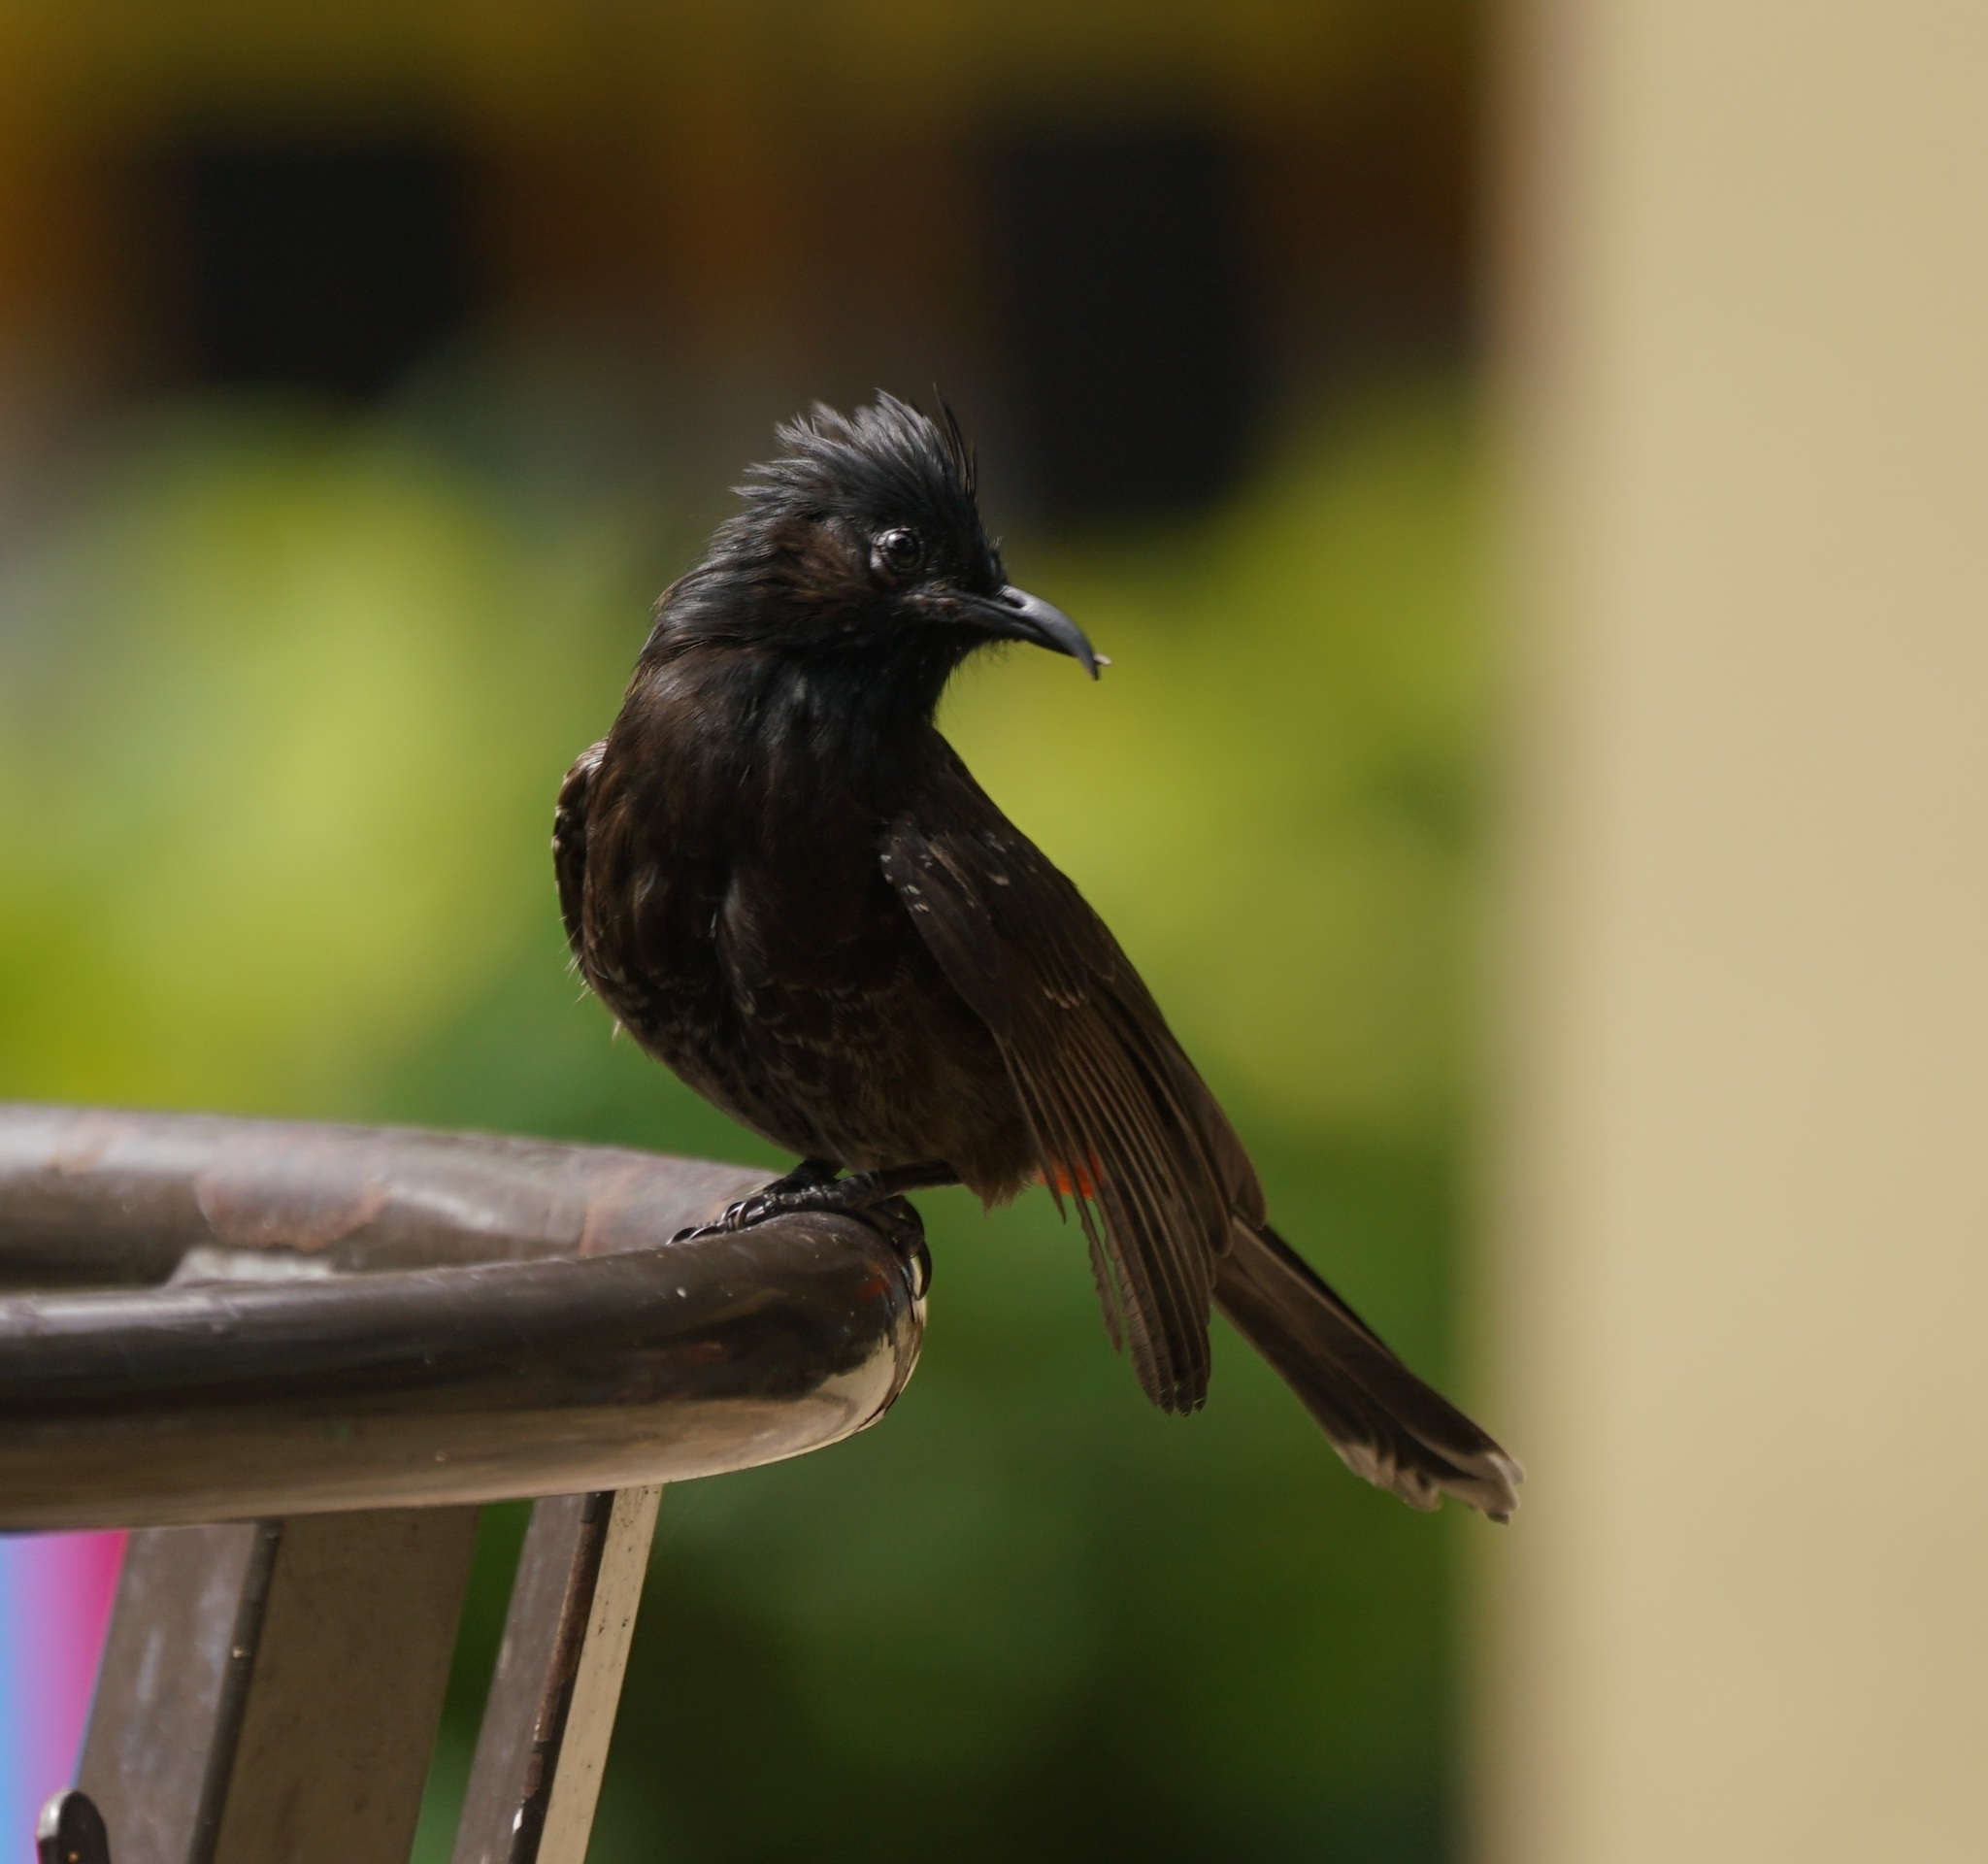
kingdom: Animalia
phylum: Chordata
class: Aves
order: Passeriformes
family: Pycnonotidae
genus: Pycnonotus
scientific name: Pycnonotus cafer
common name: Red-vented bulbul
